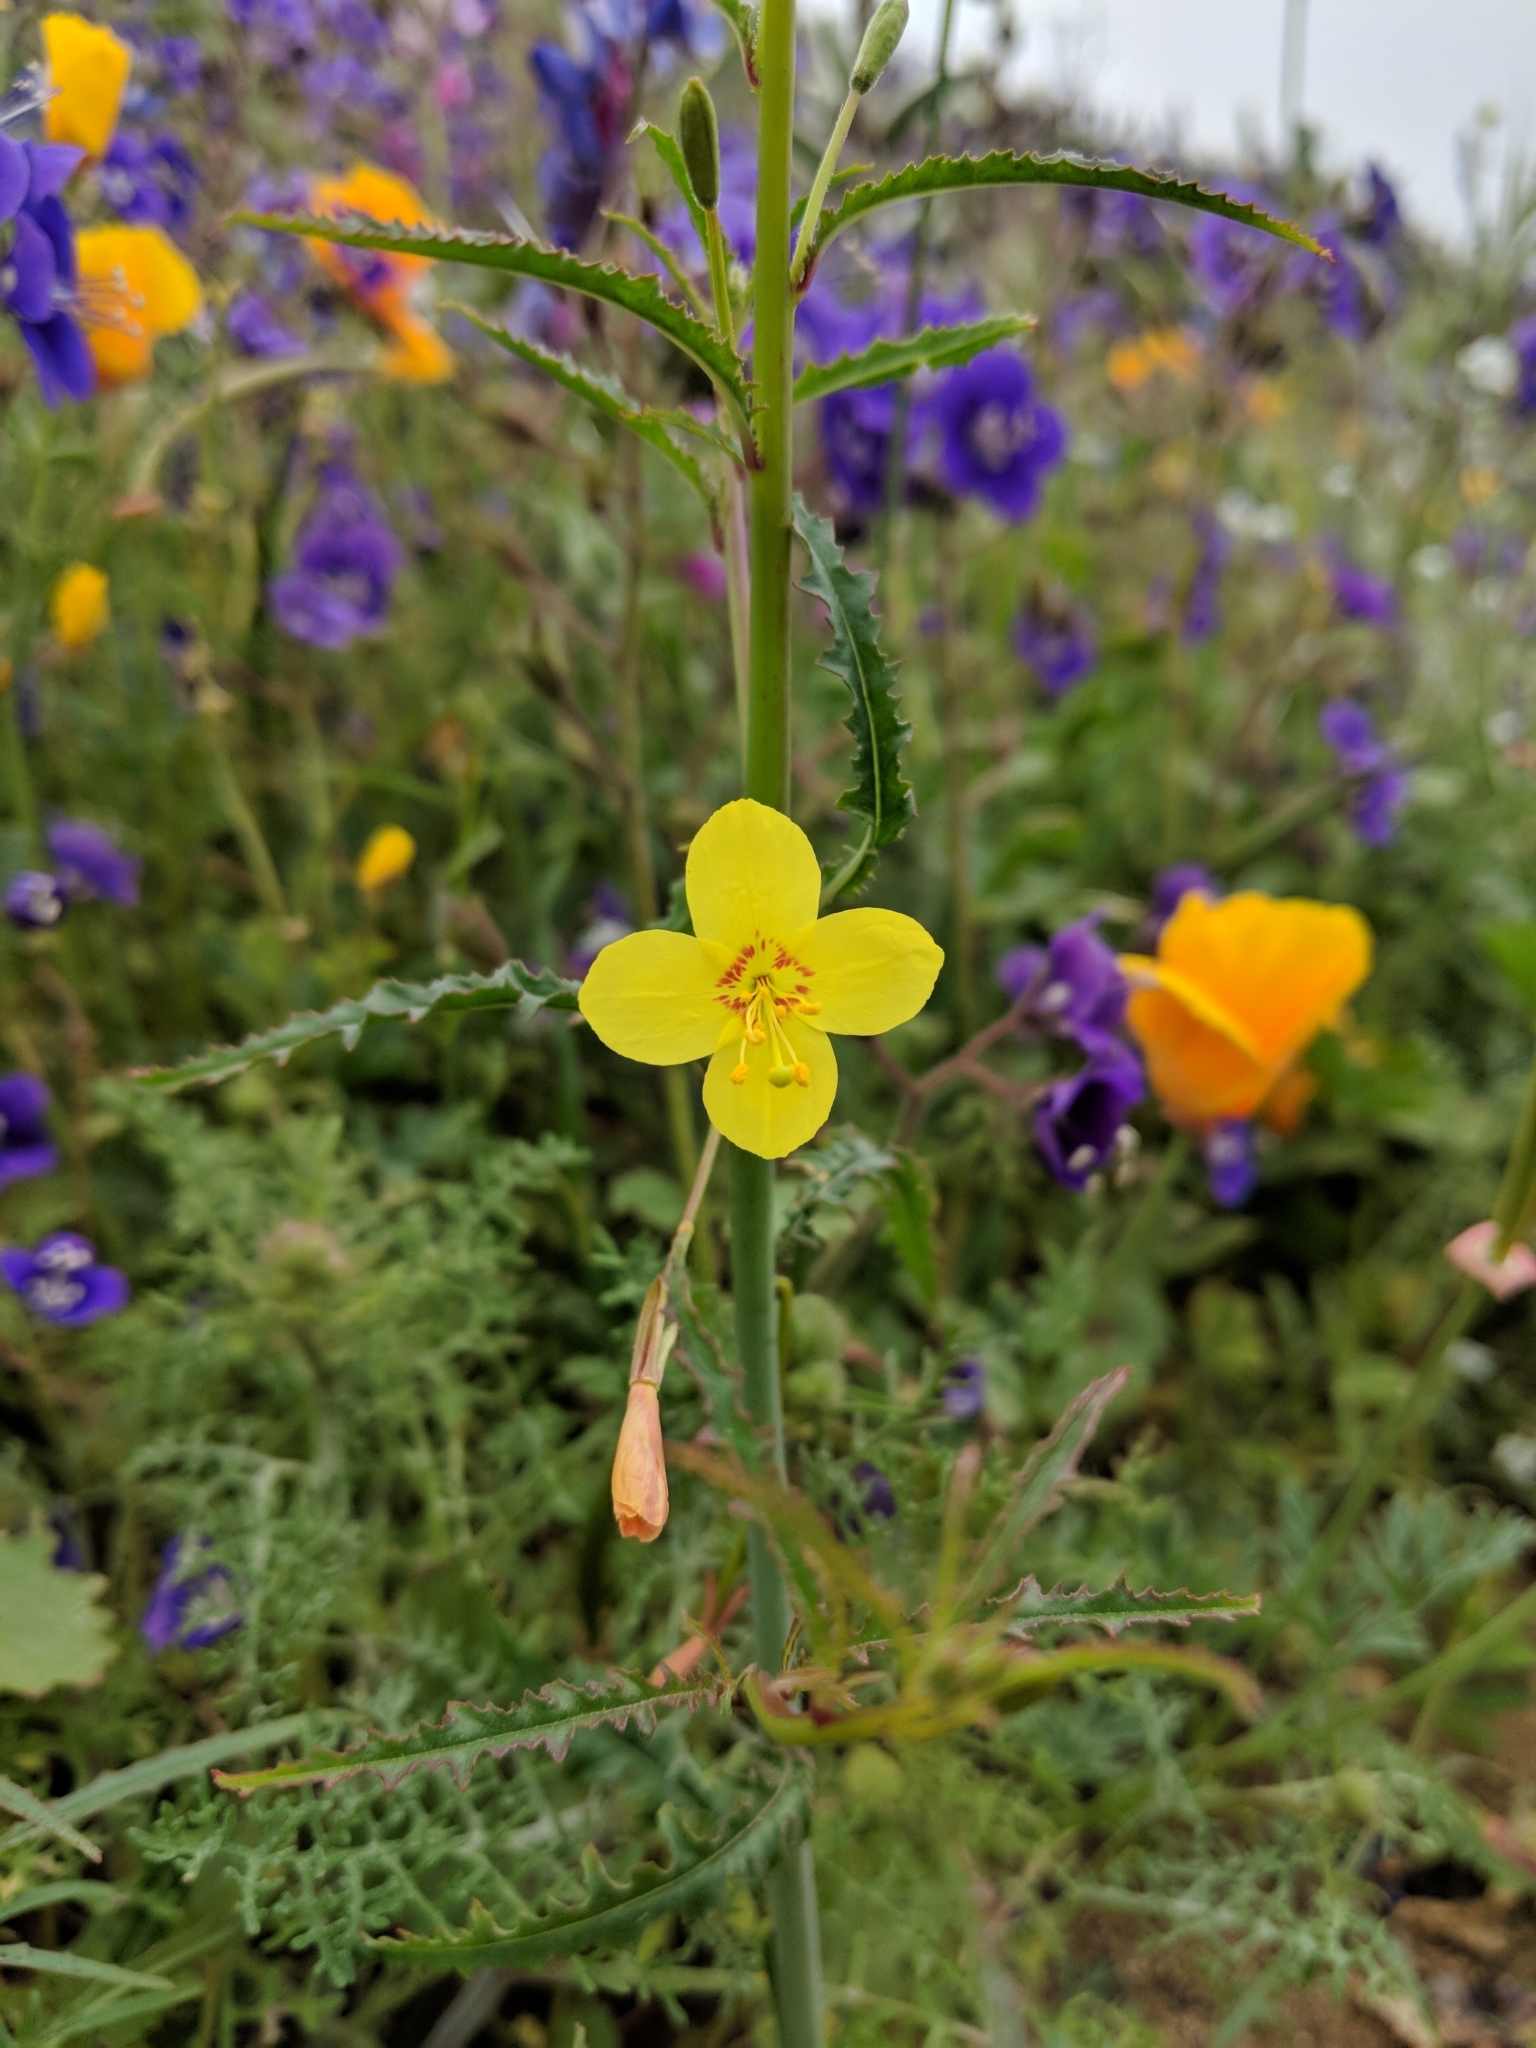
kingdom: Plantae
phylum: Tracheophyta
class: Magnoliopsida
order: Myrtales
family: Onagraceae
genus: Eulobus
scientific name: Eulobus californicus
